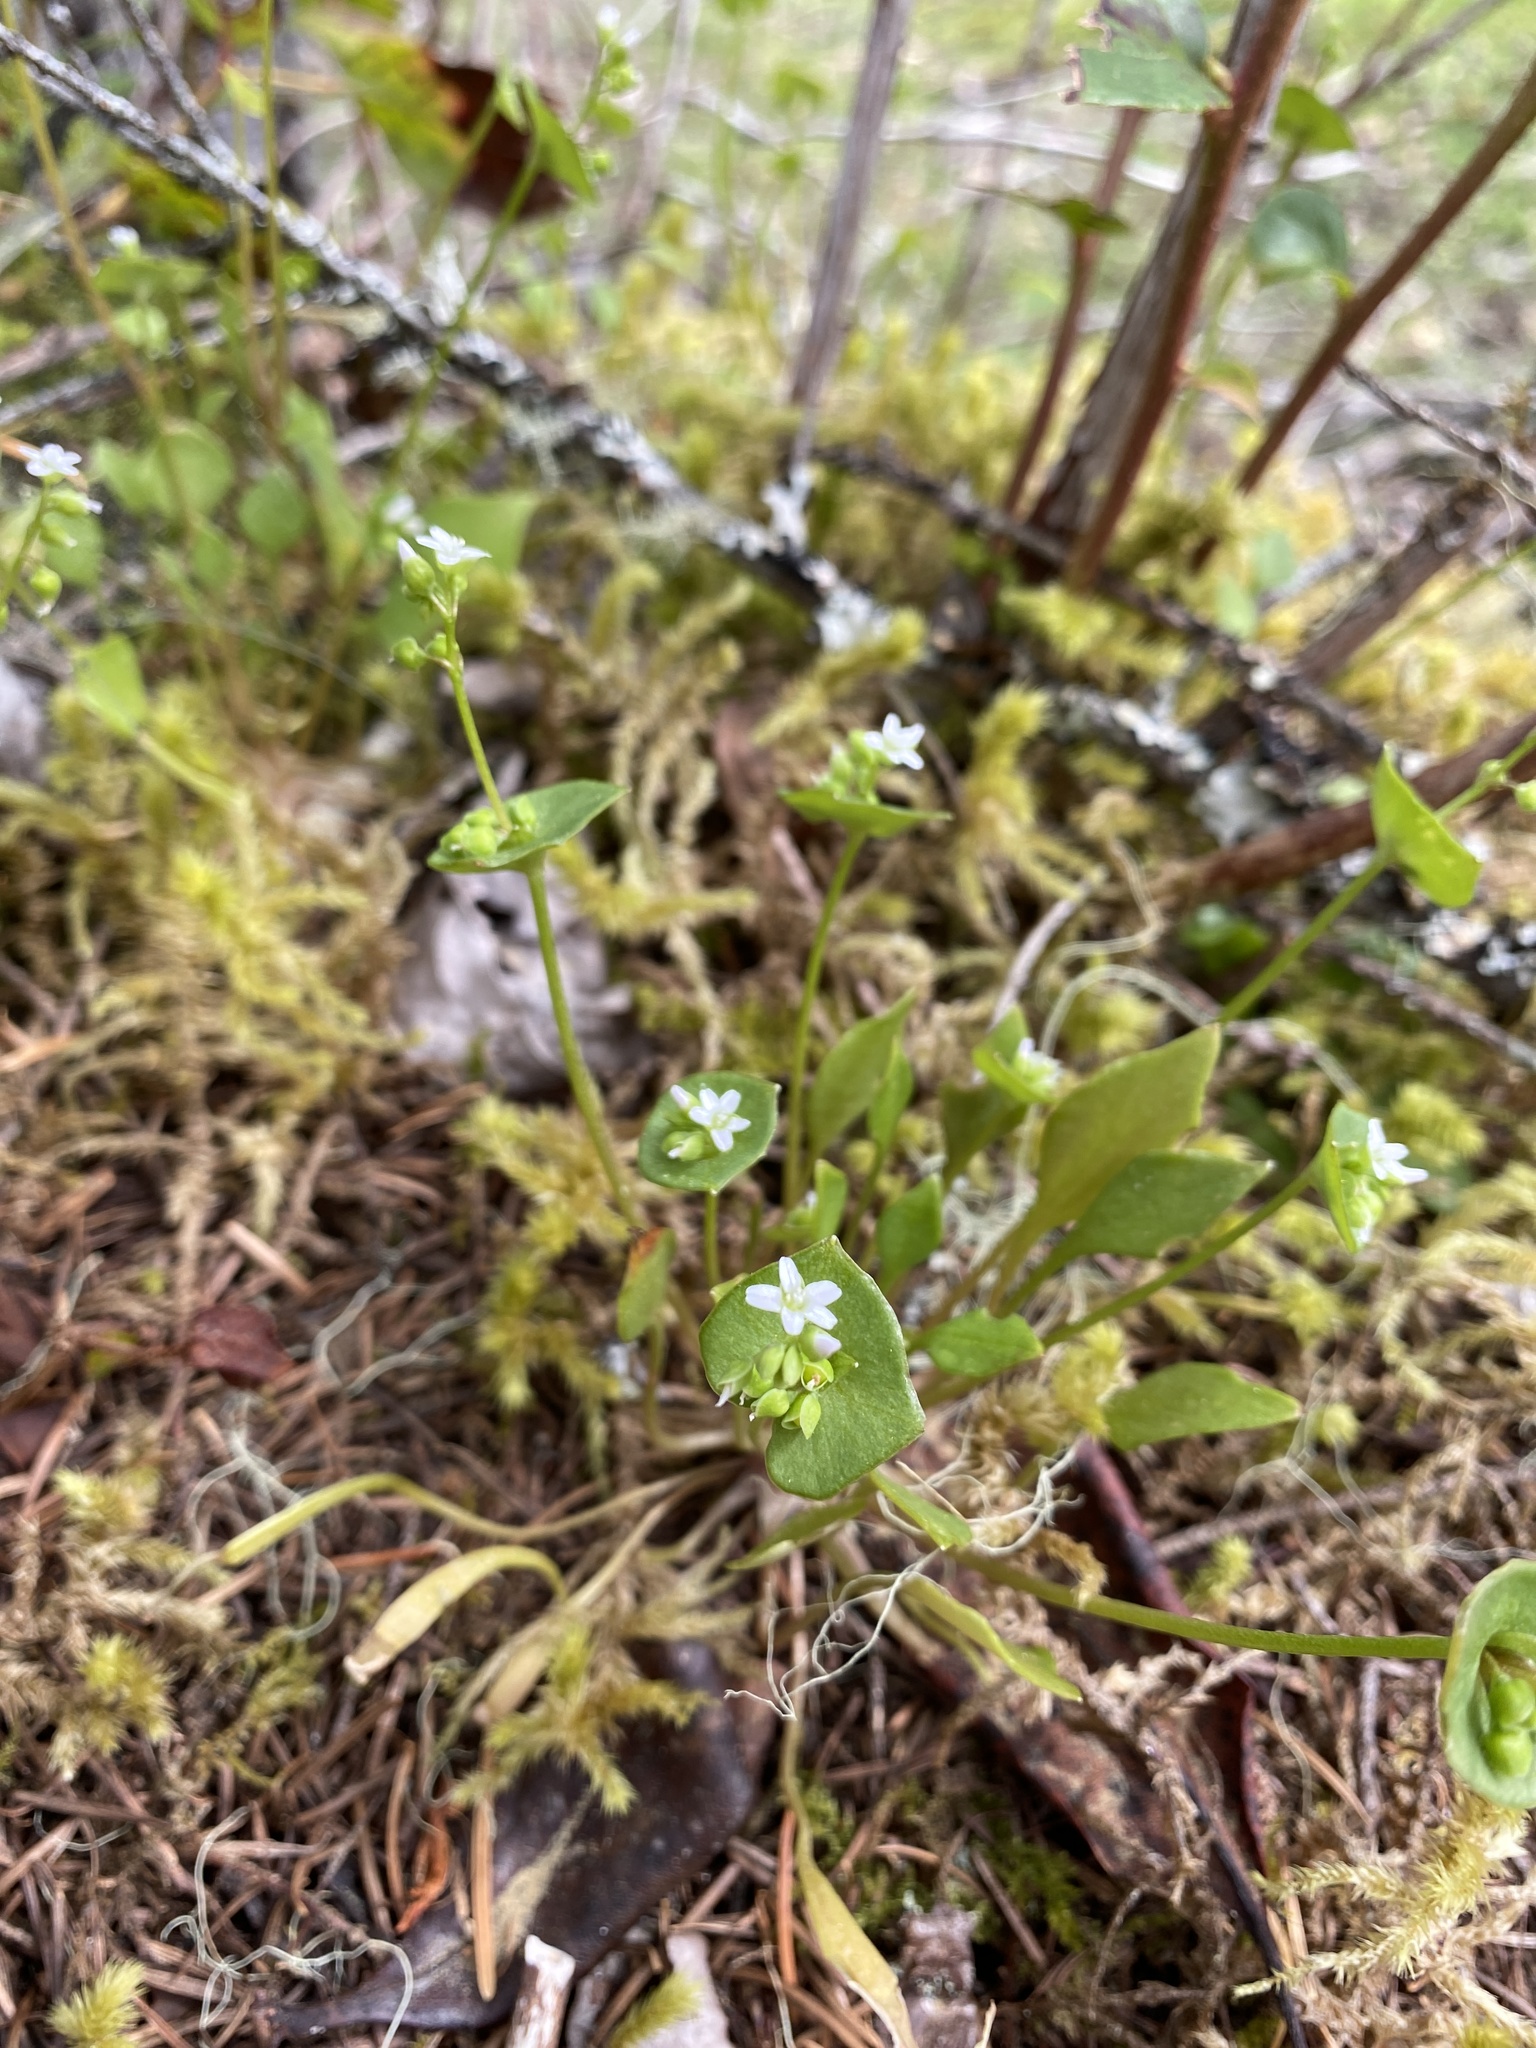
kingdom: Plantae
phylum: Tracheophyta
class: Magnoliopsida
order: Caryophyllales
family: Montiaceae
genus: Claytonia
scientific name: Claytonia perfoliata
